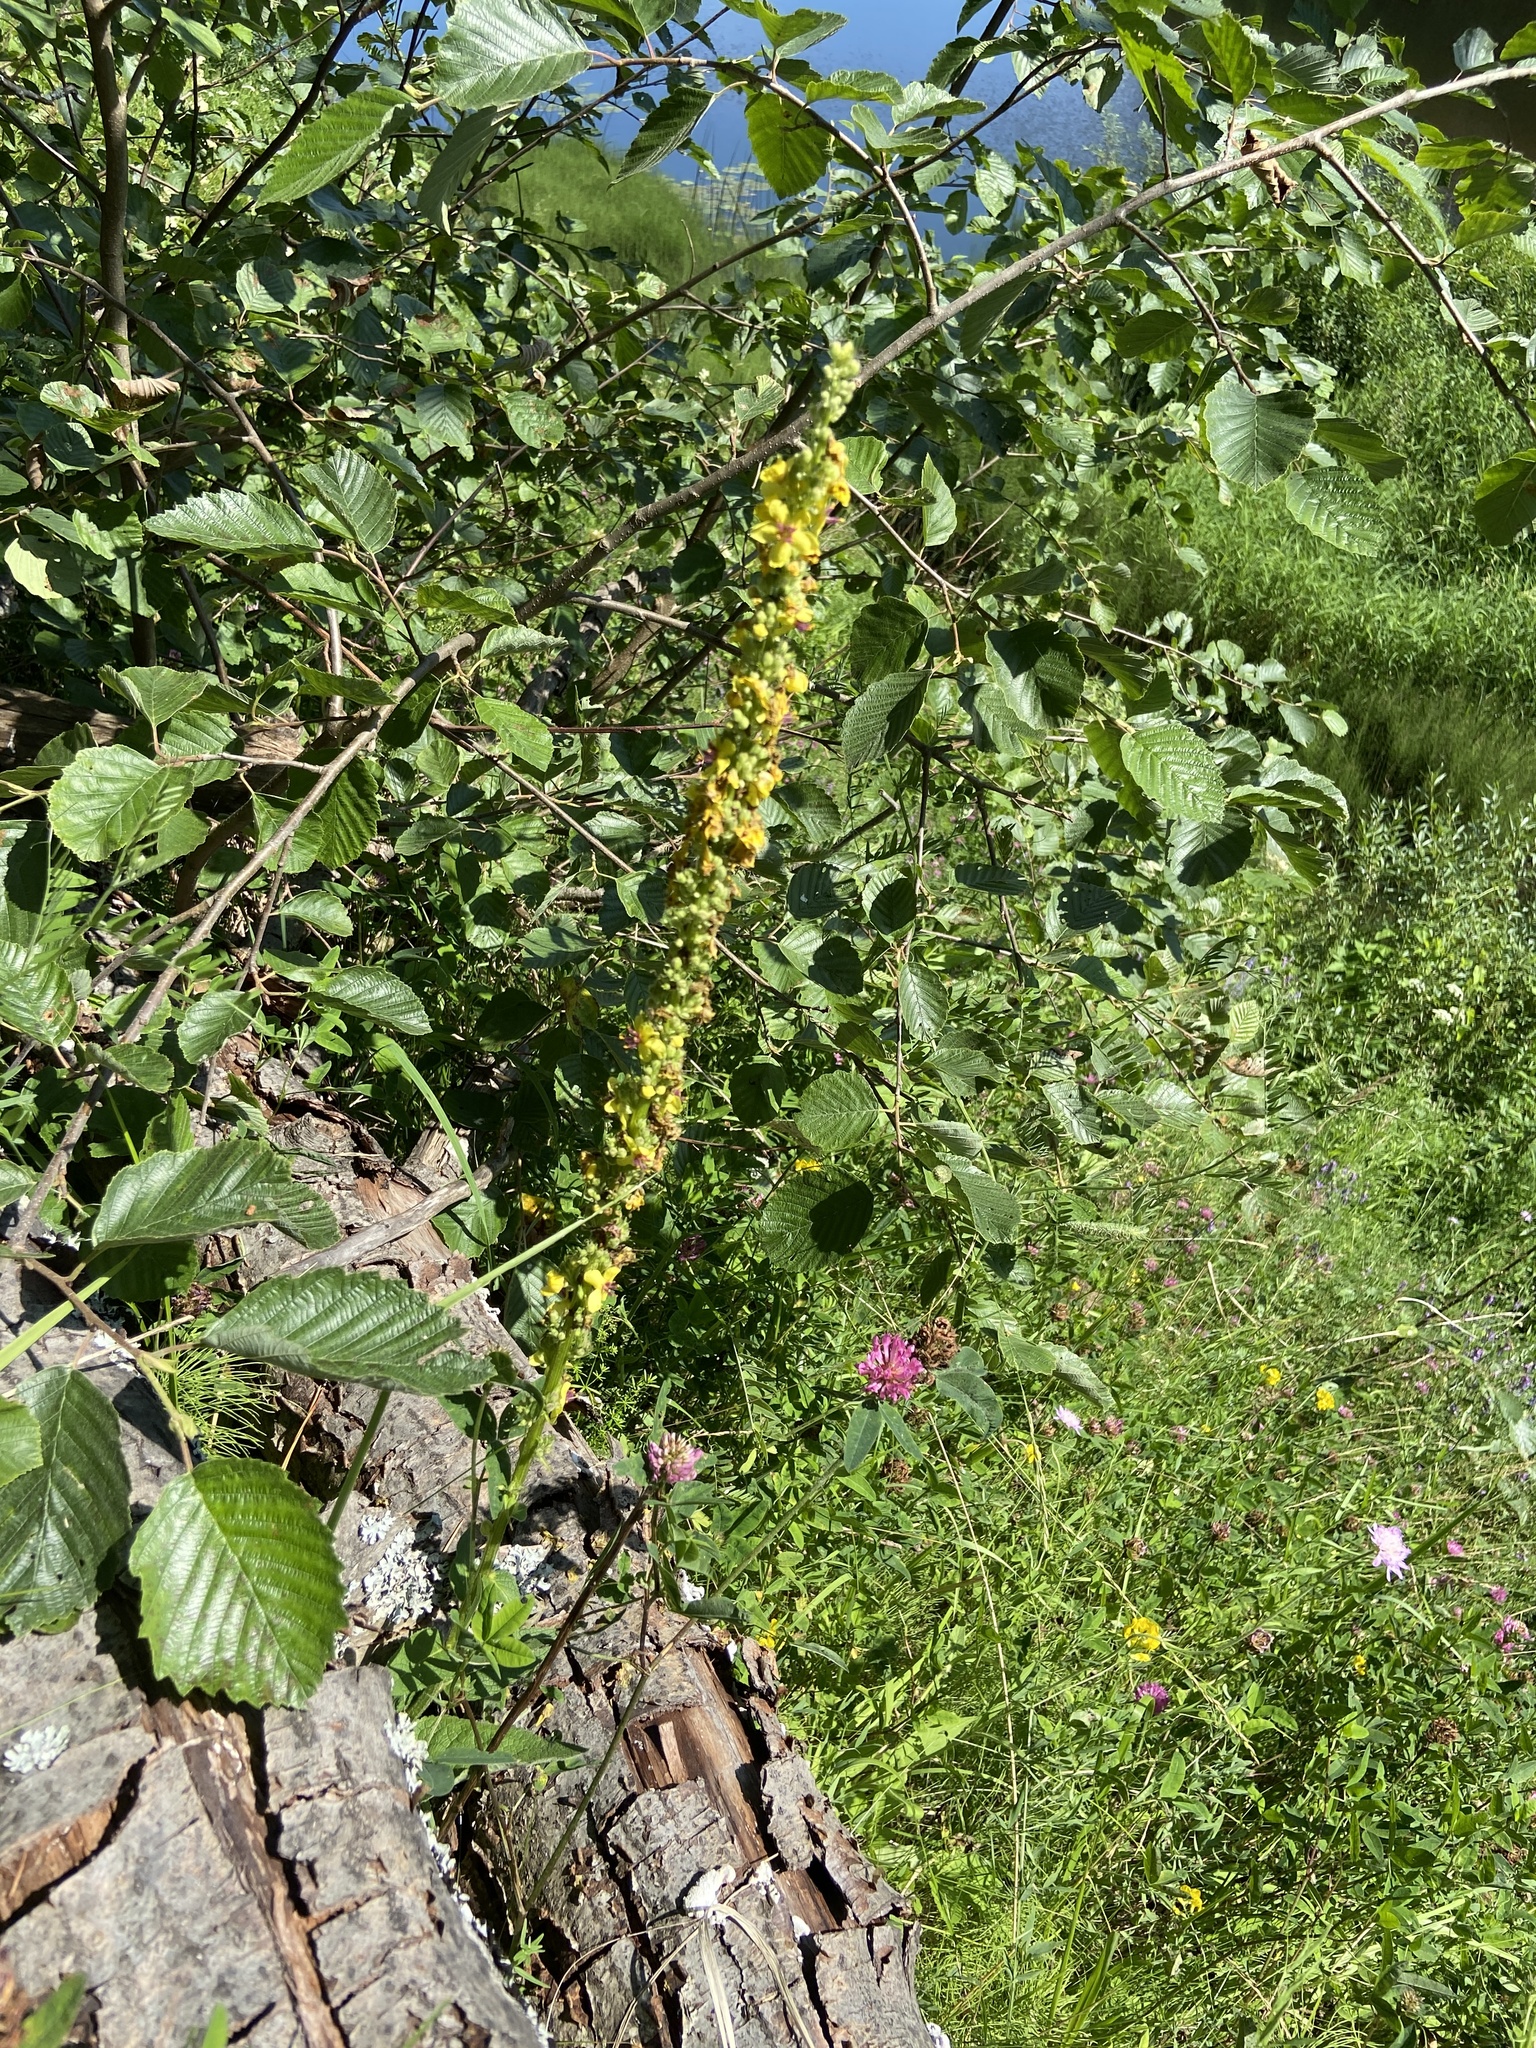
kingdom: Plantae
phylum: Tracheophyta
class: Magnoliopsida
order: Lamiales
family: Scrophulariaceae
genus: Verbascum
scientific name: Verbascum nigrum
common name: Dark mullein
